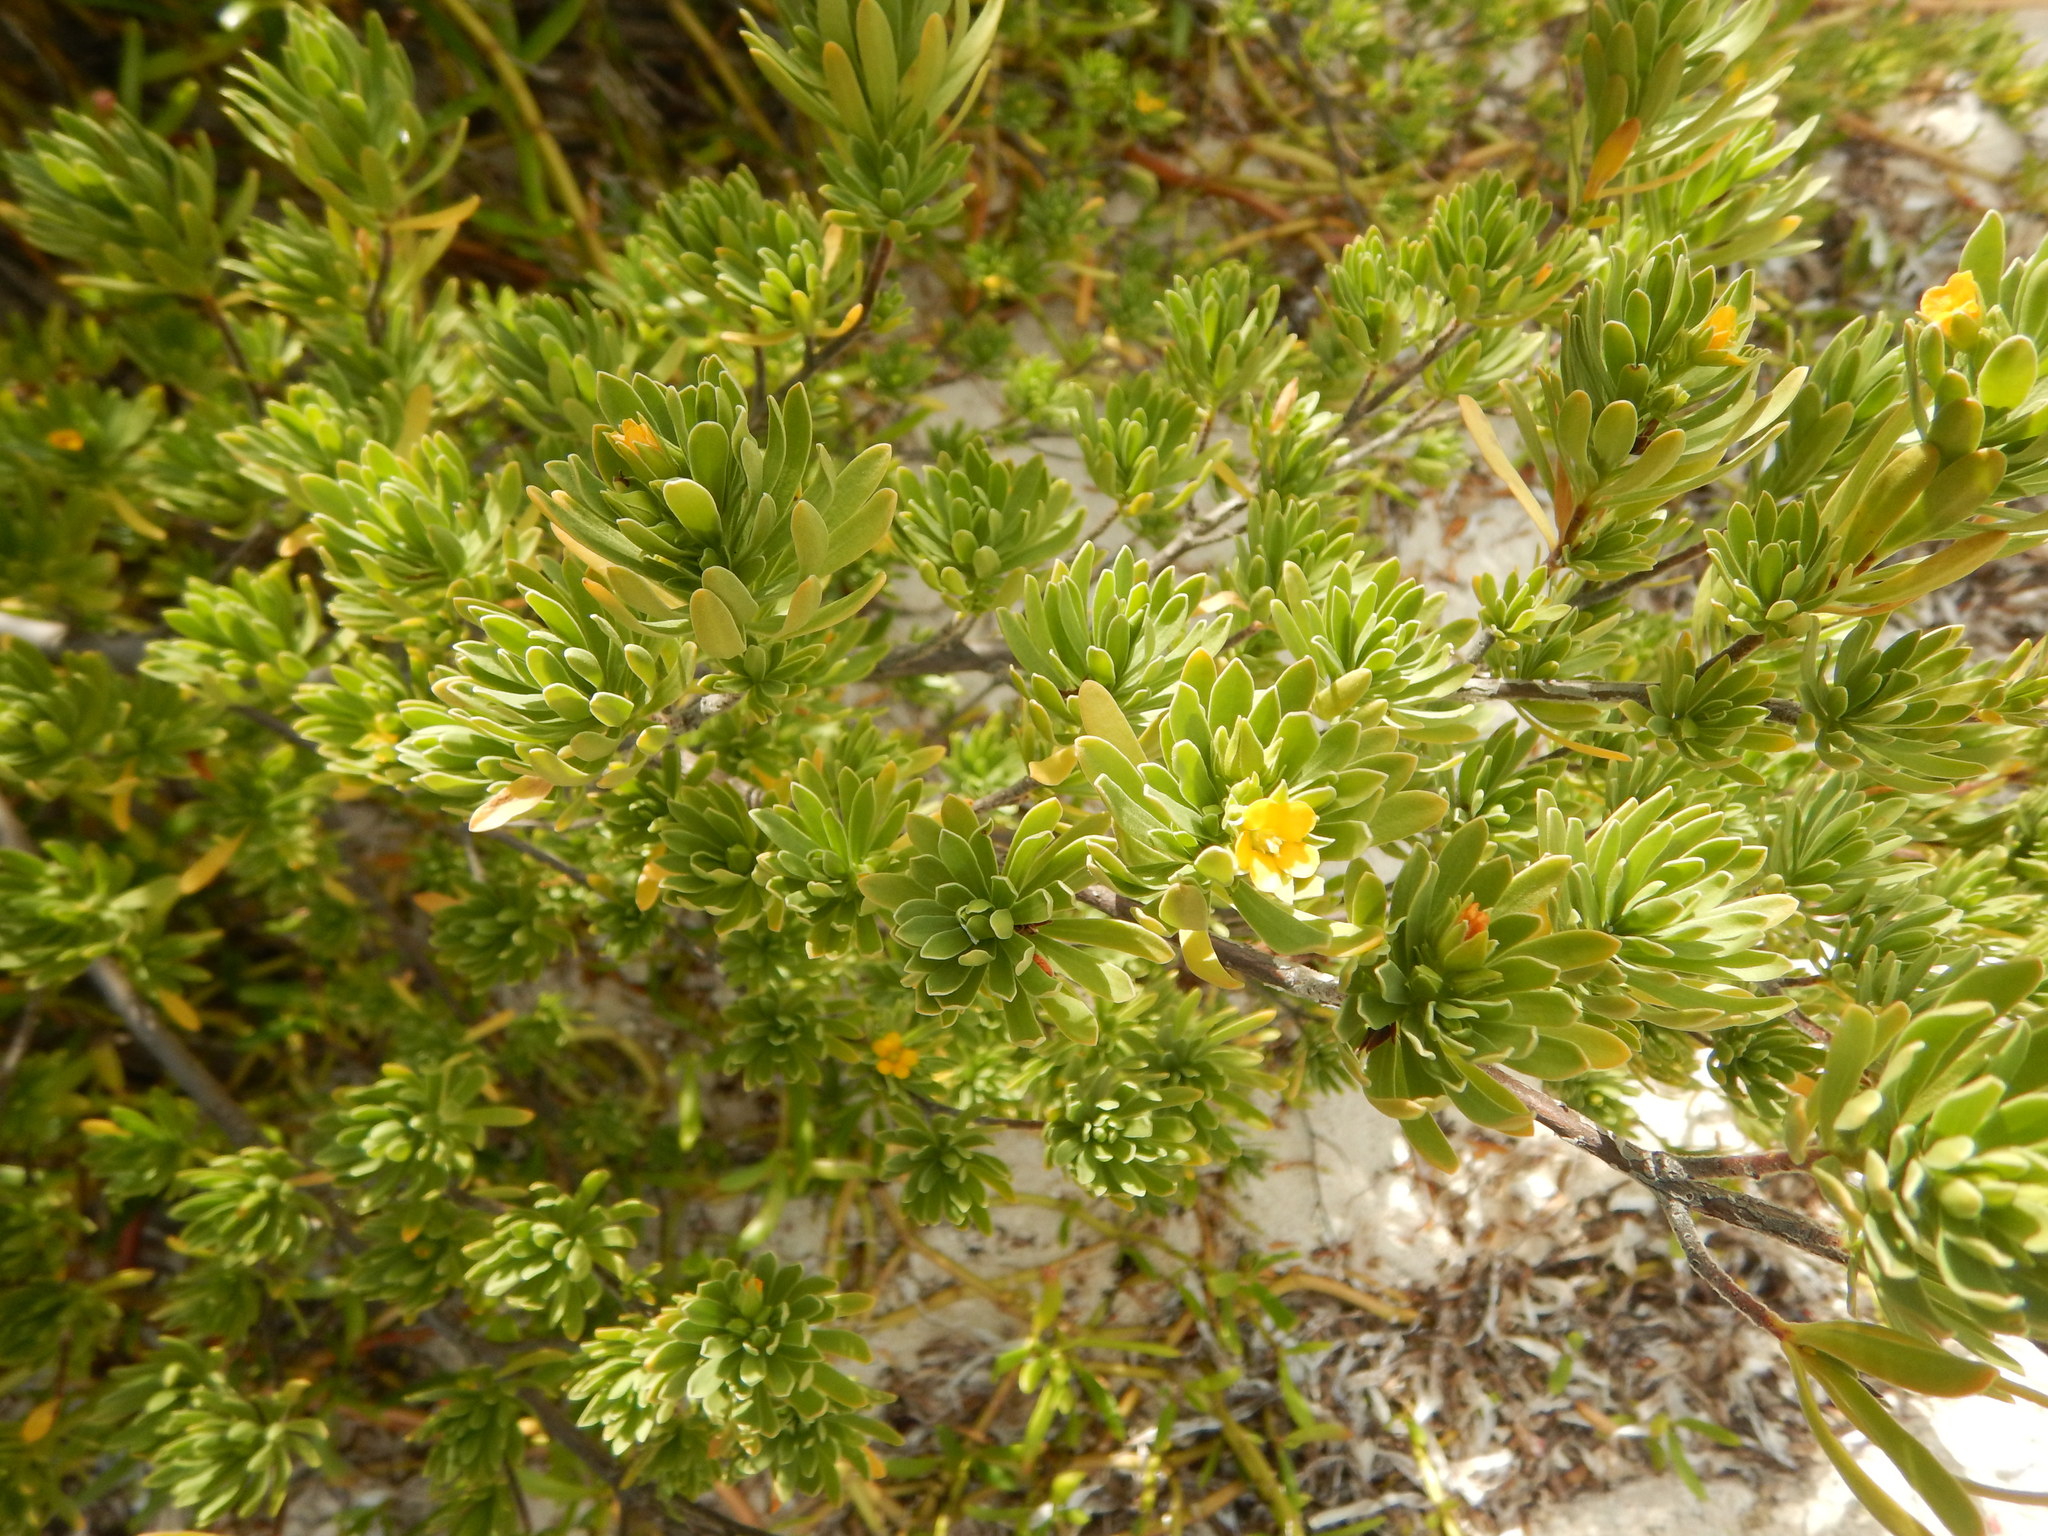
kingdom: Plantae
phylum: Tracheophyta
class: Magnoliopsida
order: Fabales
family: Surianaceae
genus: Suriana
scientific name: Suriana maritima
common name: Bay-cedar
